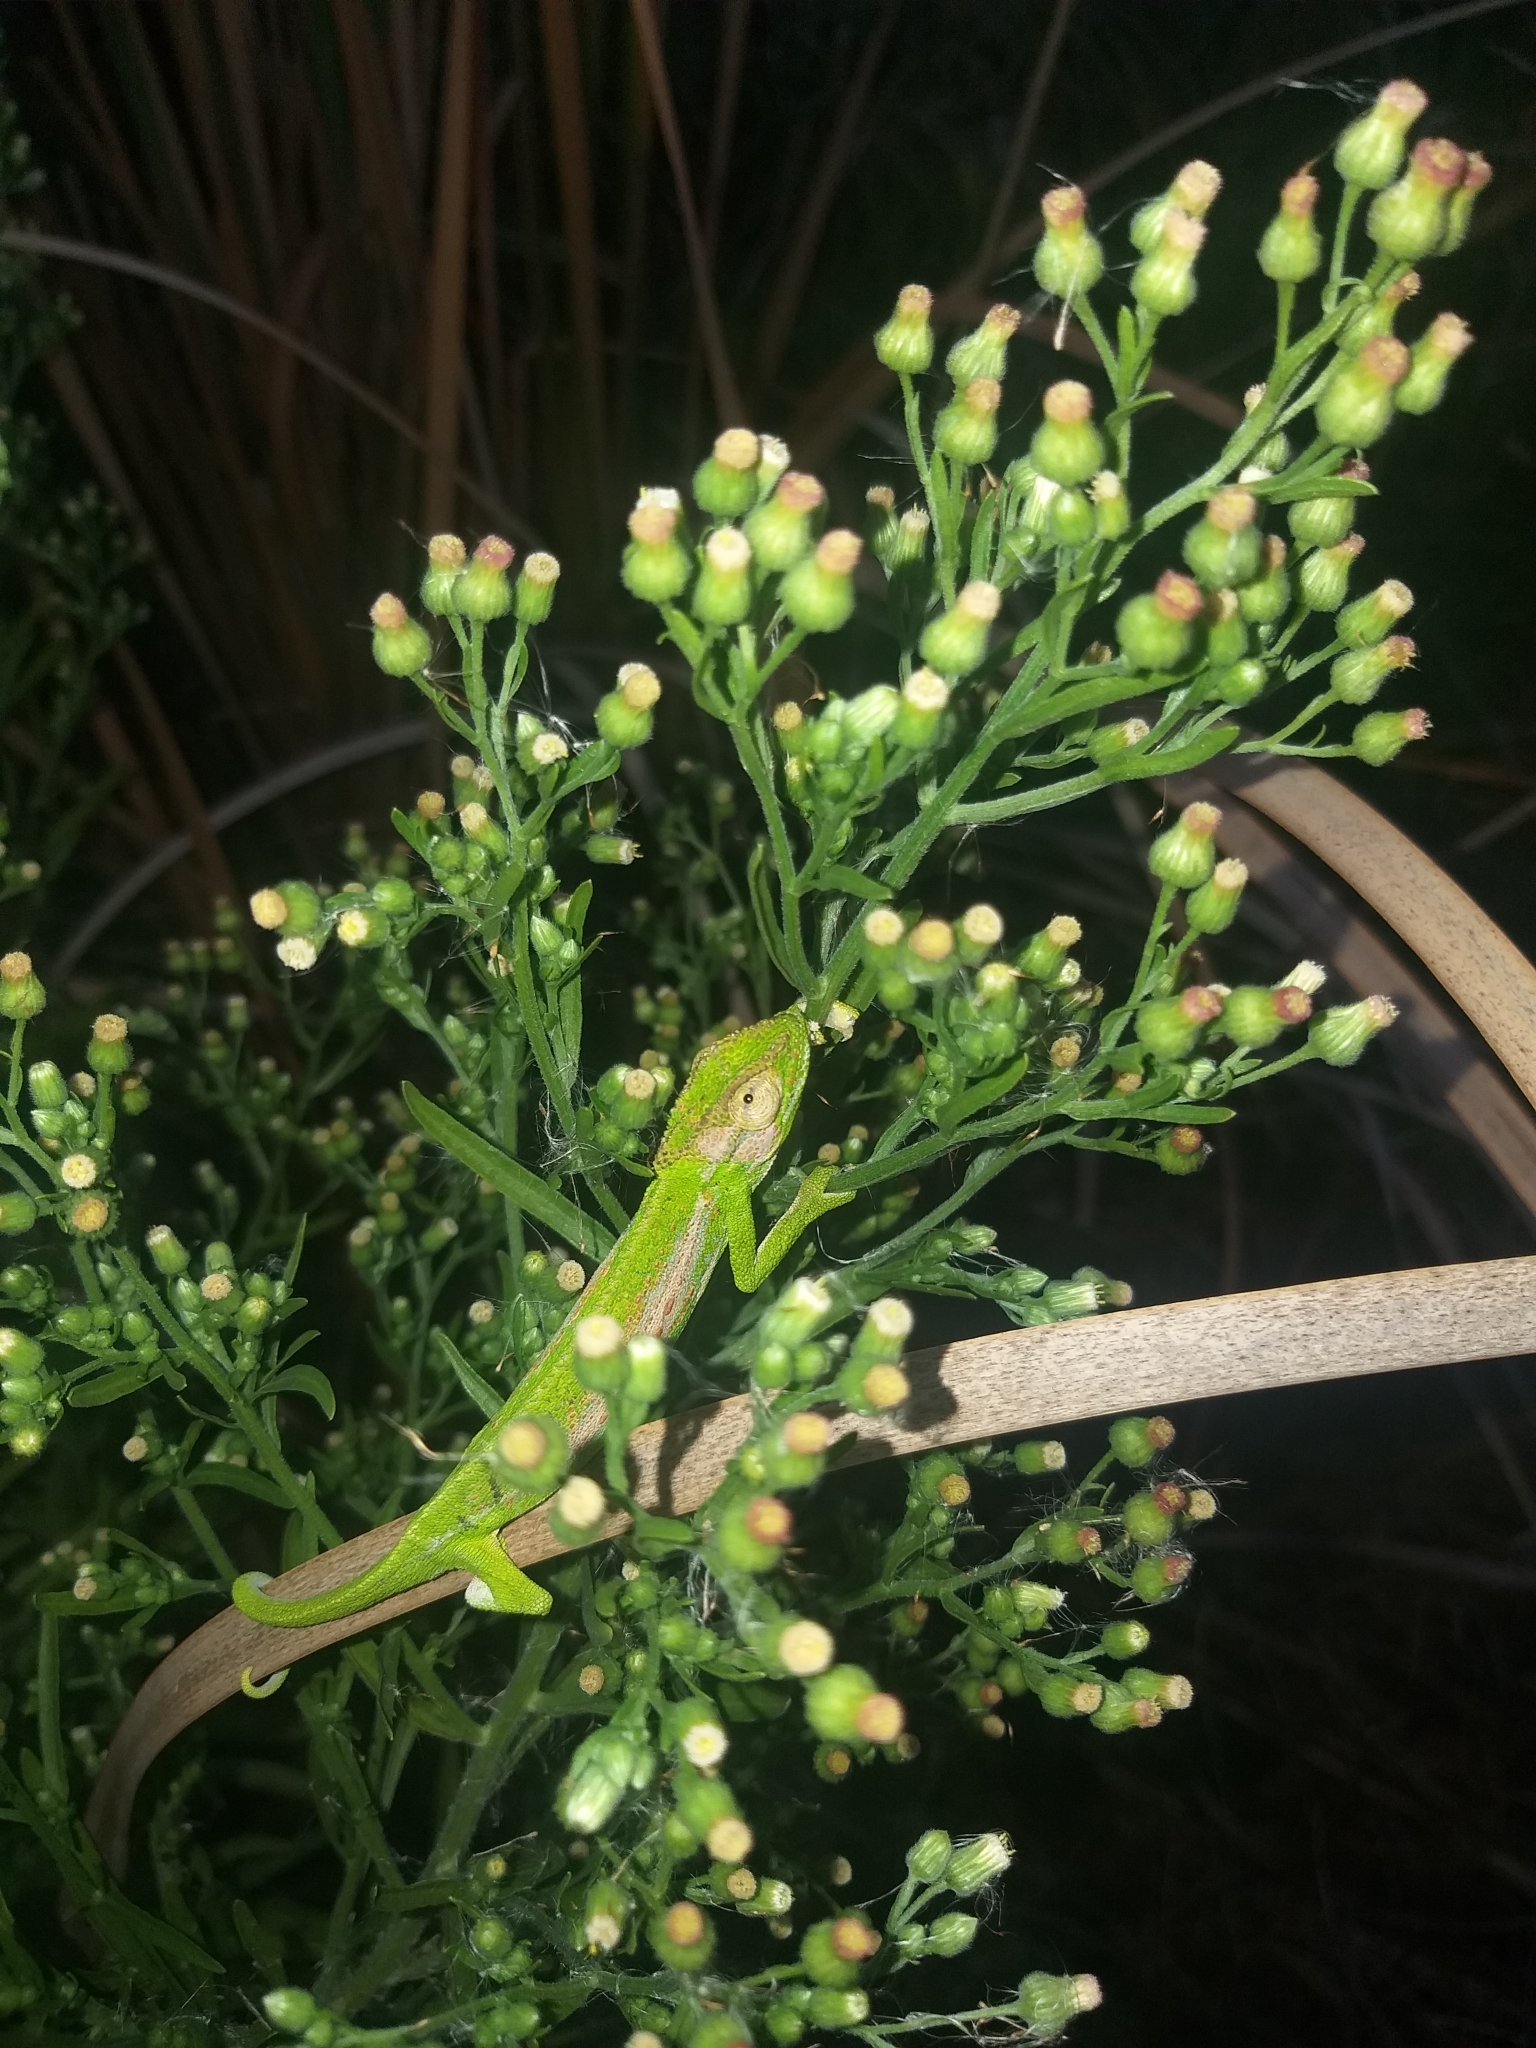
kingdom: Animalia
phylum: Chordata
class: Squamata
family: Chamaeleonidae
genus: Bradypodion
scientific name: Bradypodion pumilum
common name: Cape dwarf chameleon
